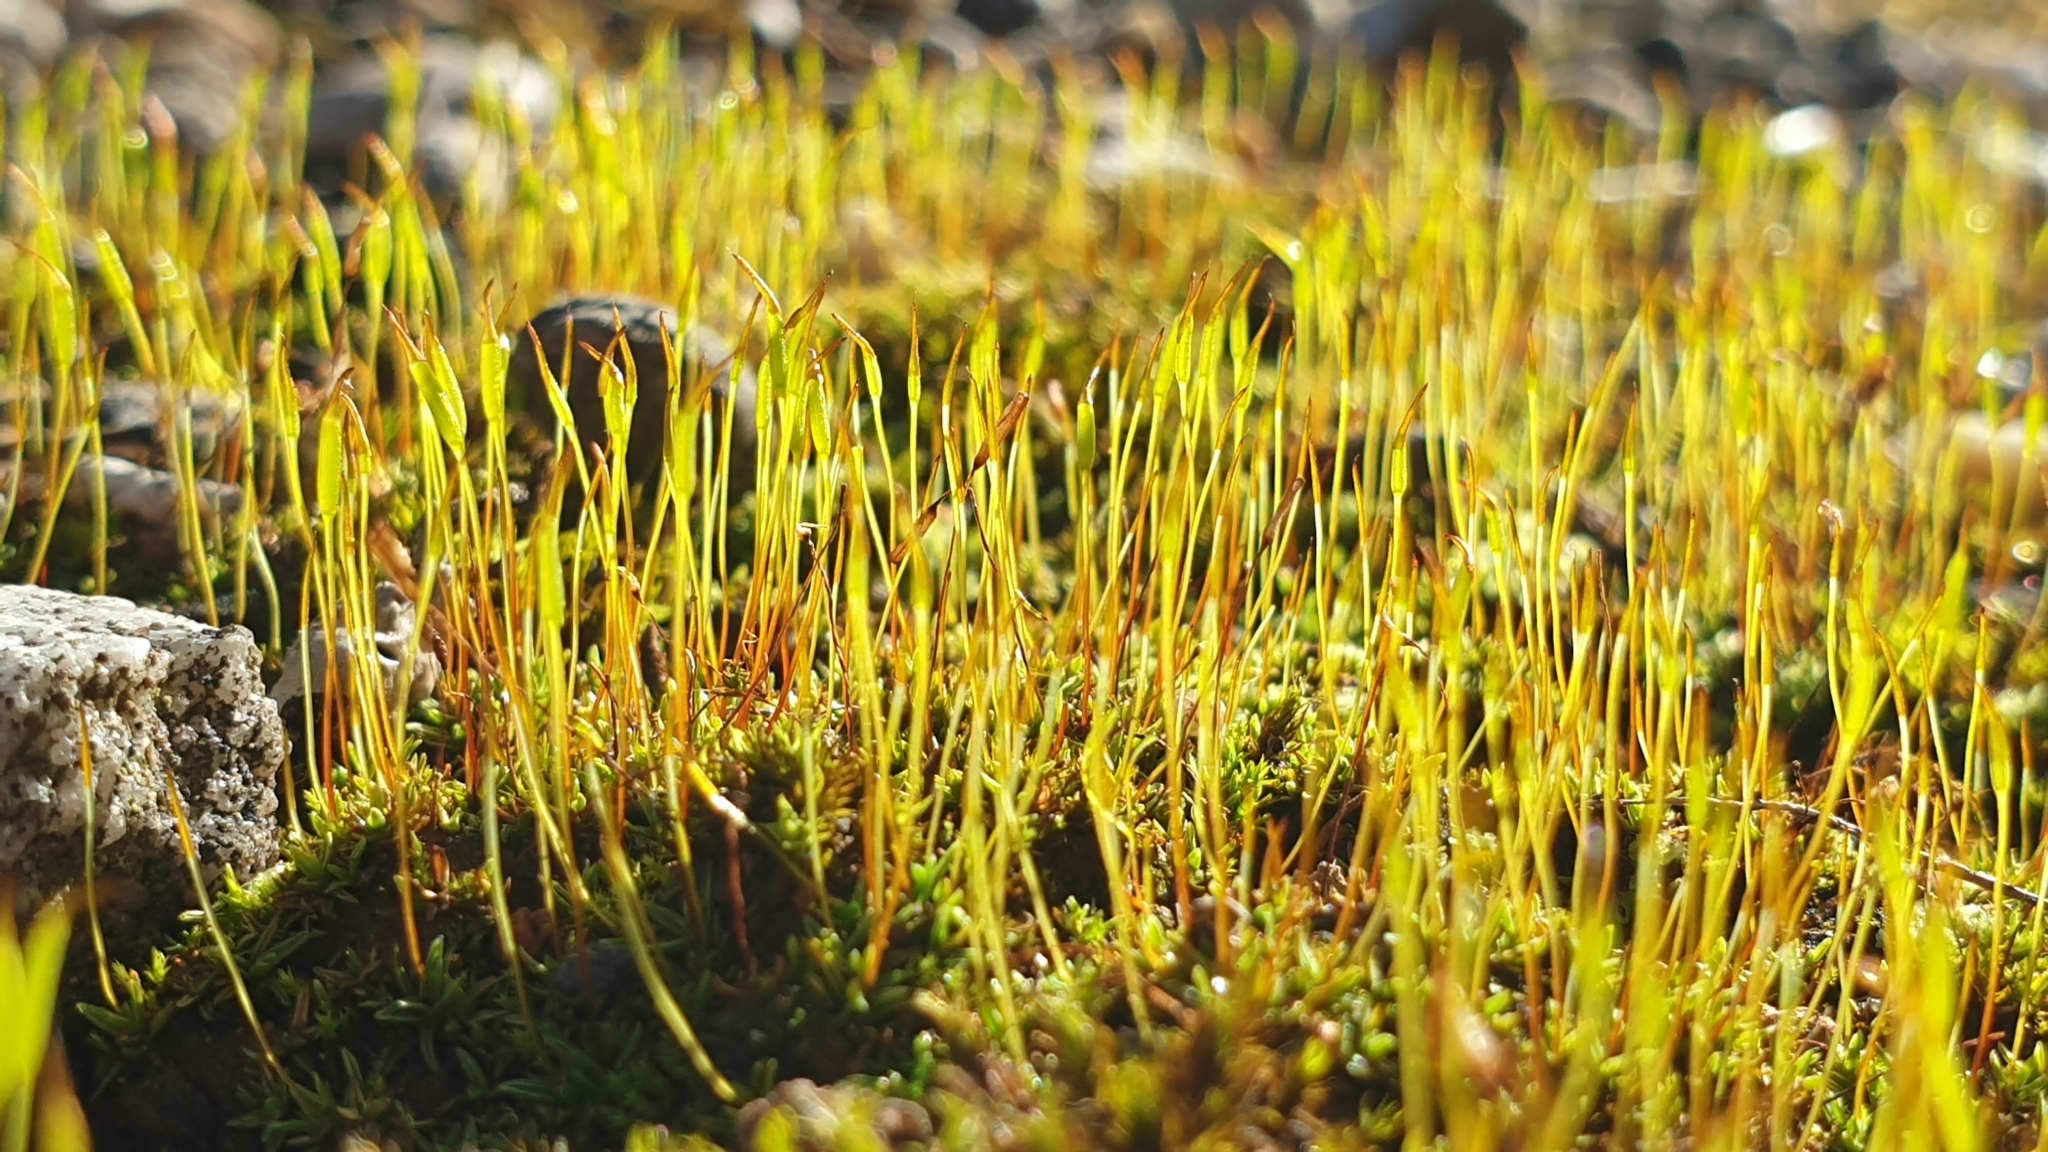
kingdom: Plantae
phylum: Bryophyta
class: Bryopsida
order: Pottiales
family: Pottiaceae
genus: Aloina
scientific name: Aloina ambigua
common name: Tall aloe-moss
